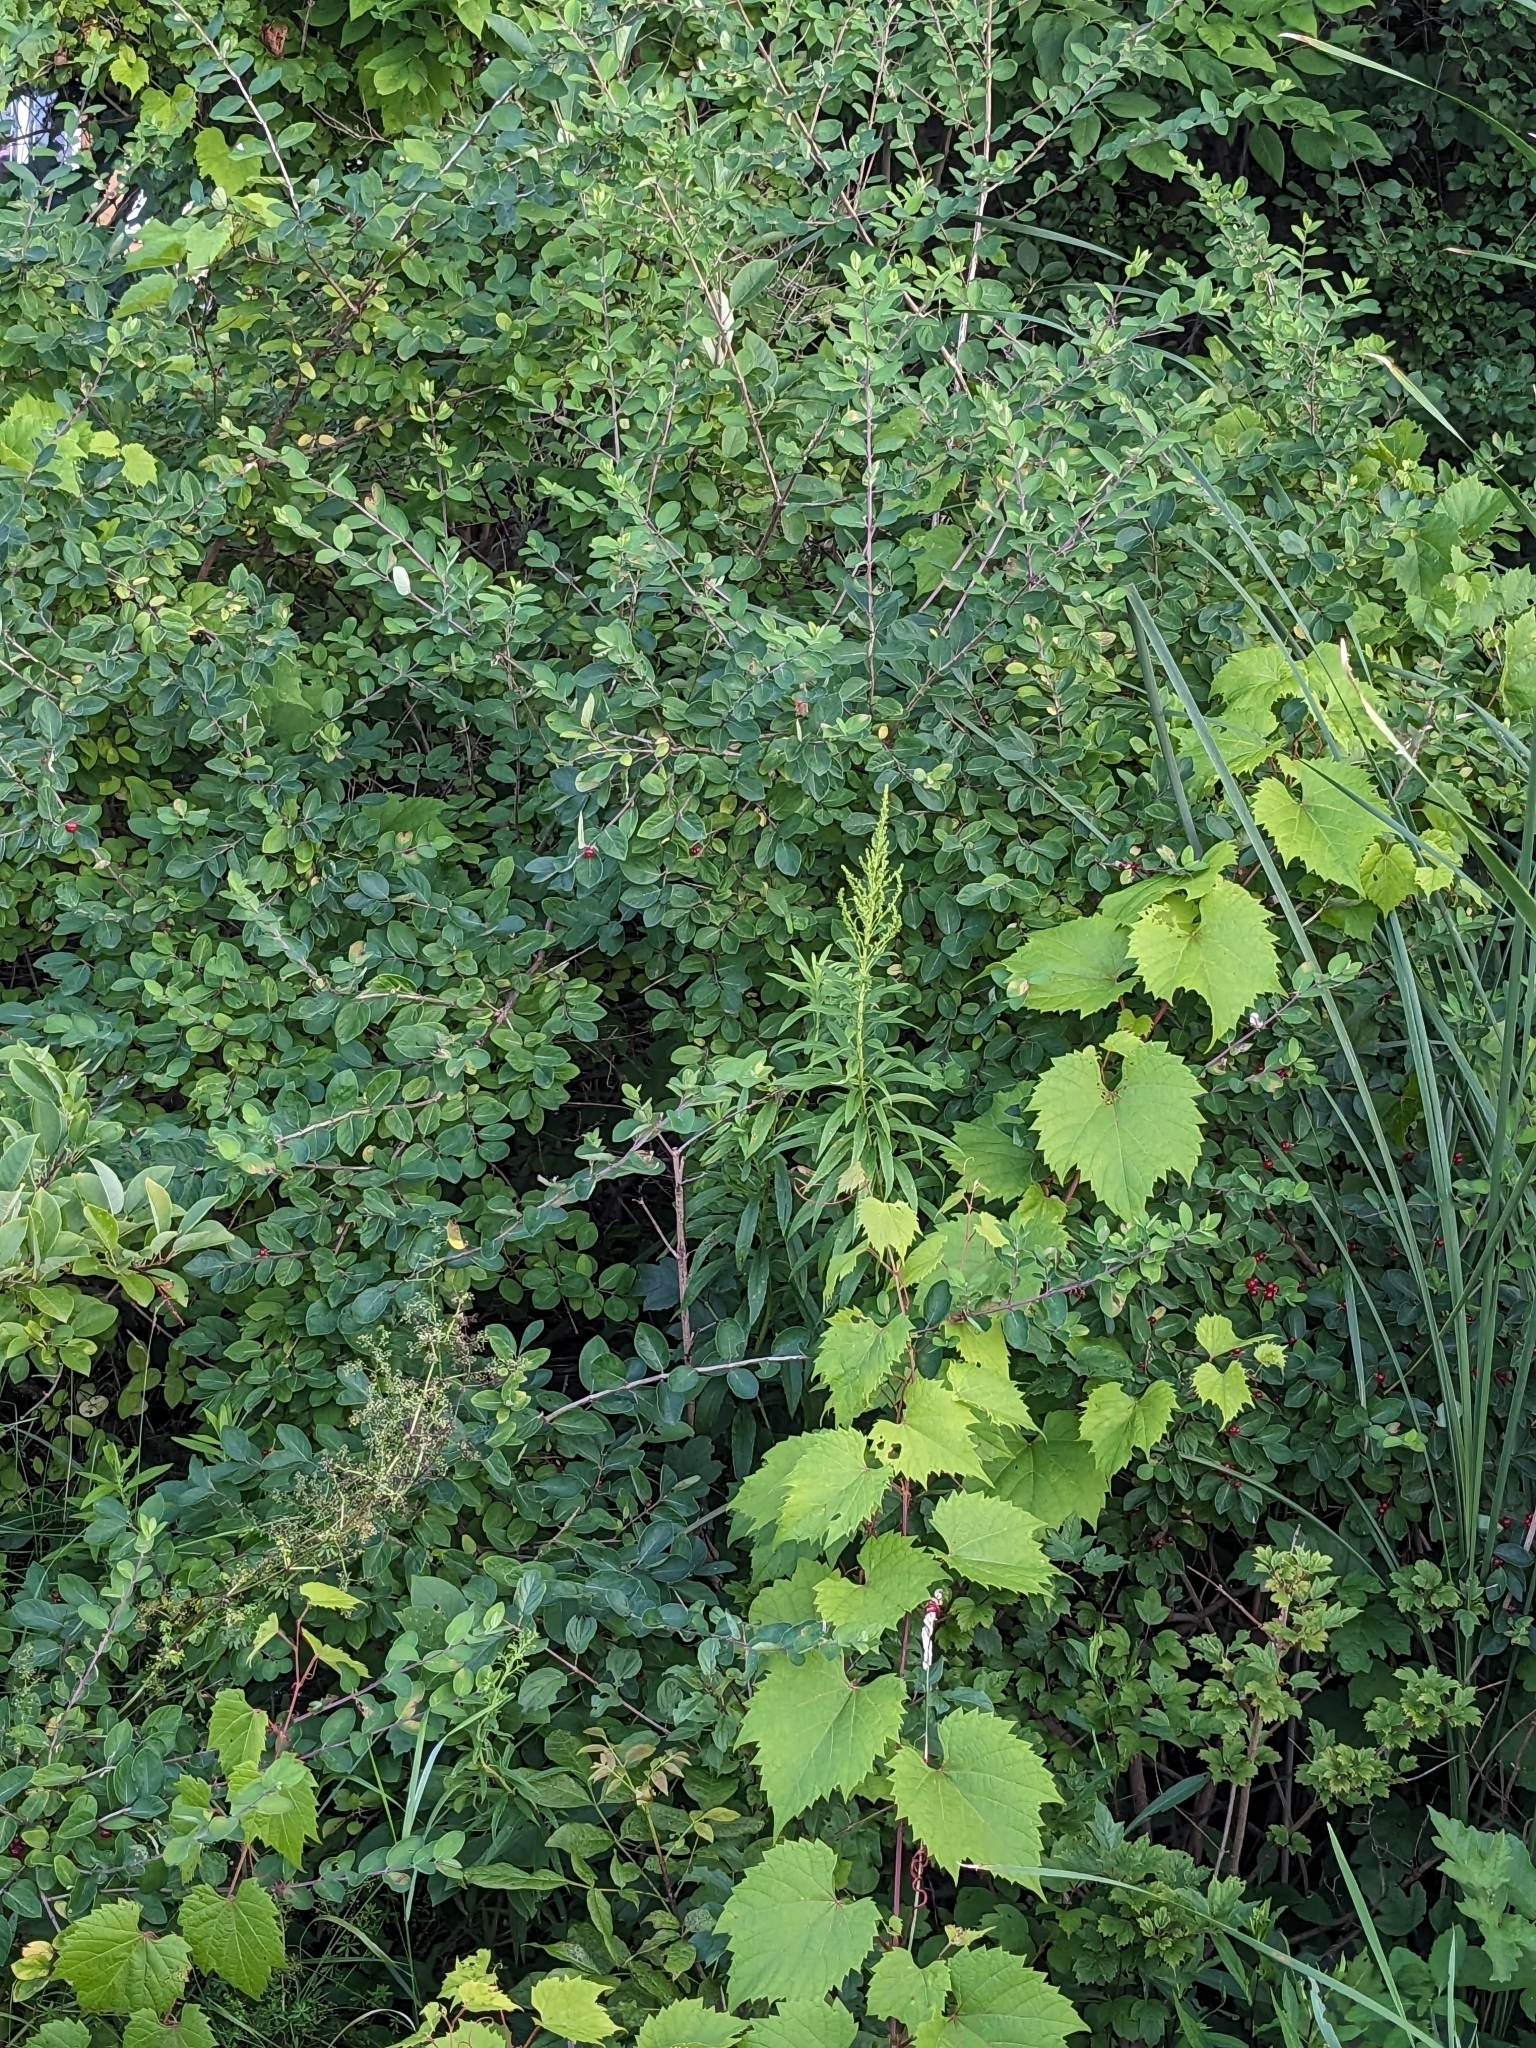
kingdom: Plantae
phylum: Tracheophyta
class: Magnoliopsida
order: Dipsacales
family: Caprifoliaceae
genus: Lonicera
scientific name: Lonicera
